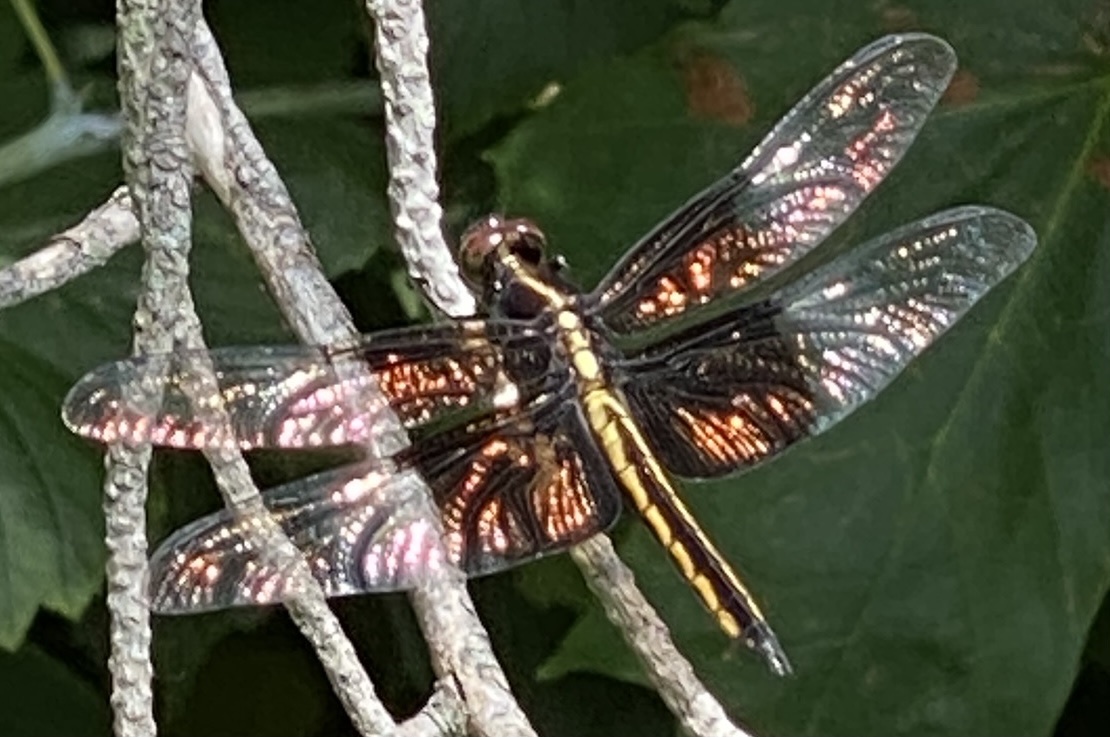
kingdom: Animalia
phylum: Arthropoda
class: Insecta
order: Odonata
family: Libellulidae
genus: Libellula
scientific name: Libellula luctuosa
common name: Widow skimmer
